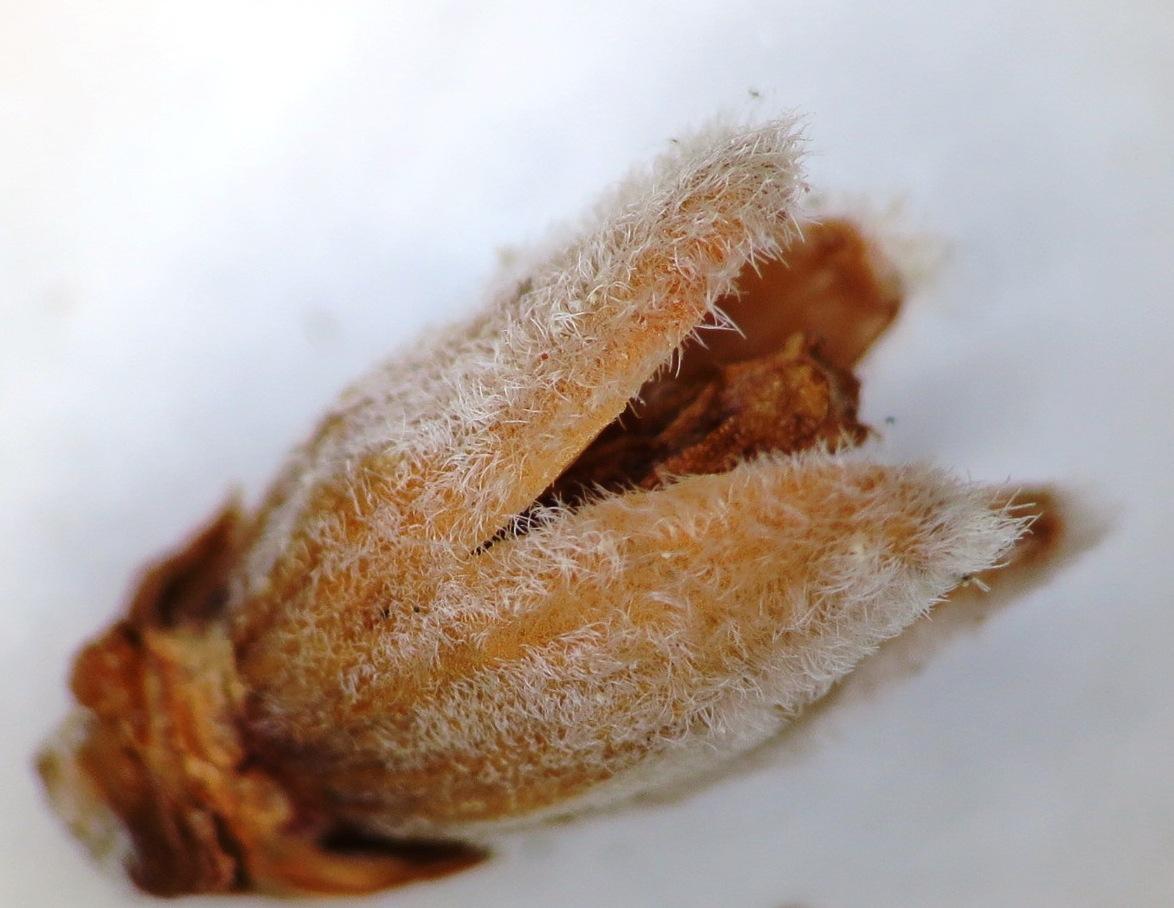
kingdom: Plantae
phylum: Tracheophyta
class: Magnoliopsida
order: Ericales
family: Ericaceae
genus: Erica
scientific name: Erica banksia
